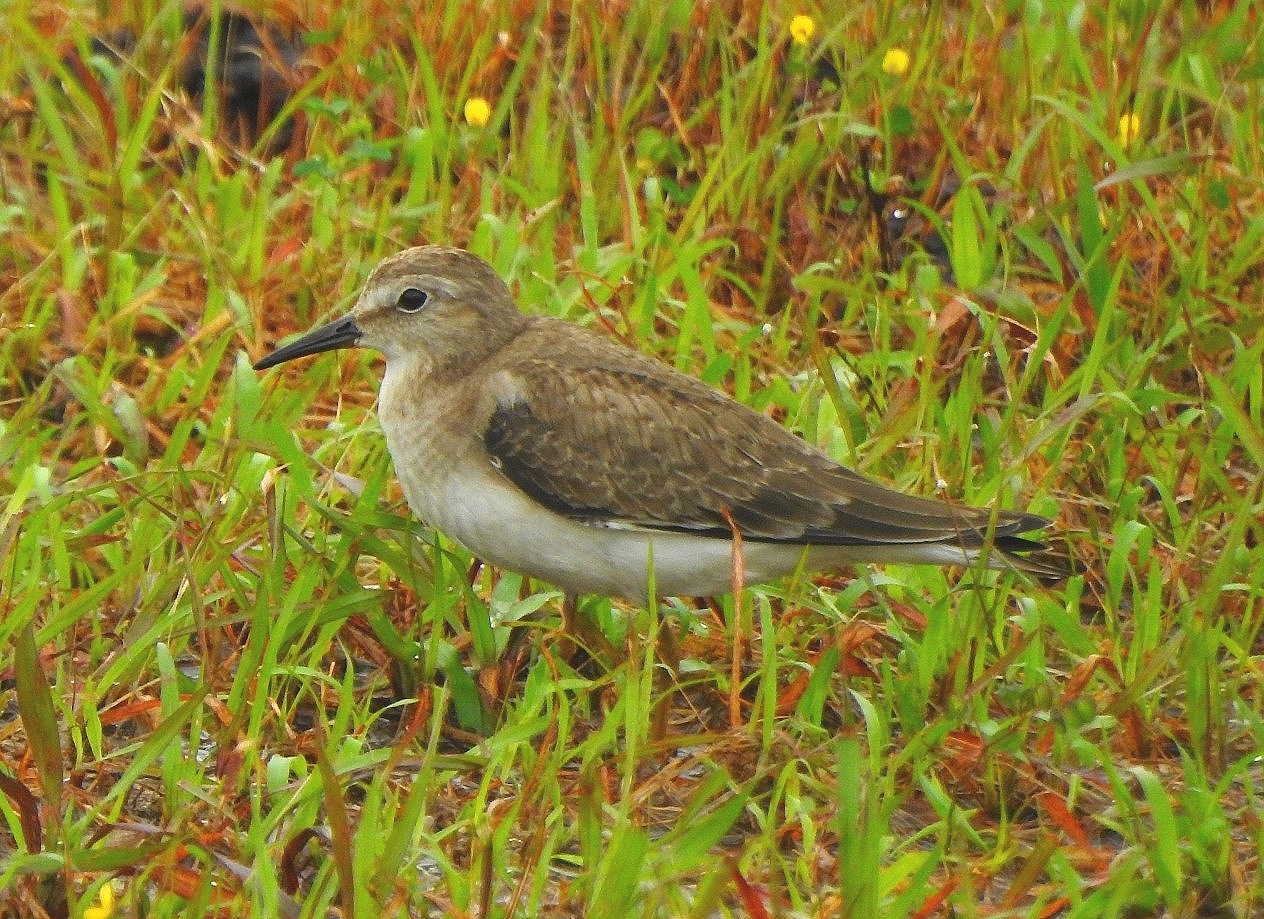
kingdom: Animalia
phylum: Chordata
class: Aves
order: Charadriiformes
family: Scolopacidae
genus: Calidris
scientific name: Calidris temminckii
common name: Temminck's stint
